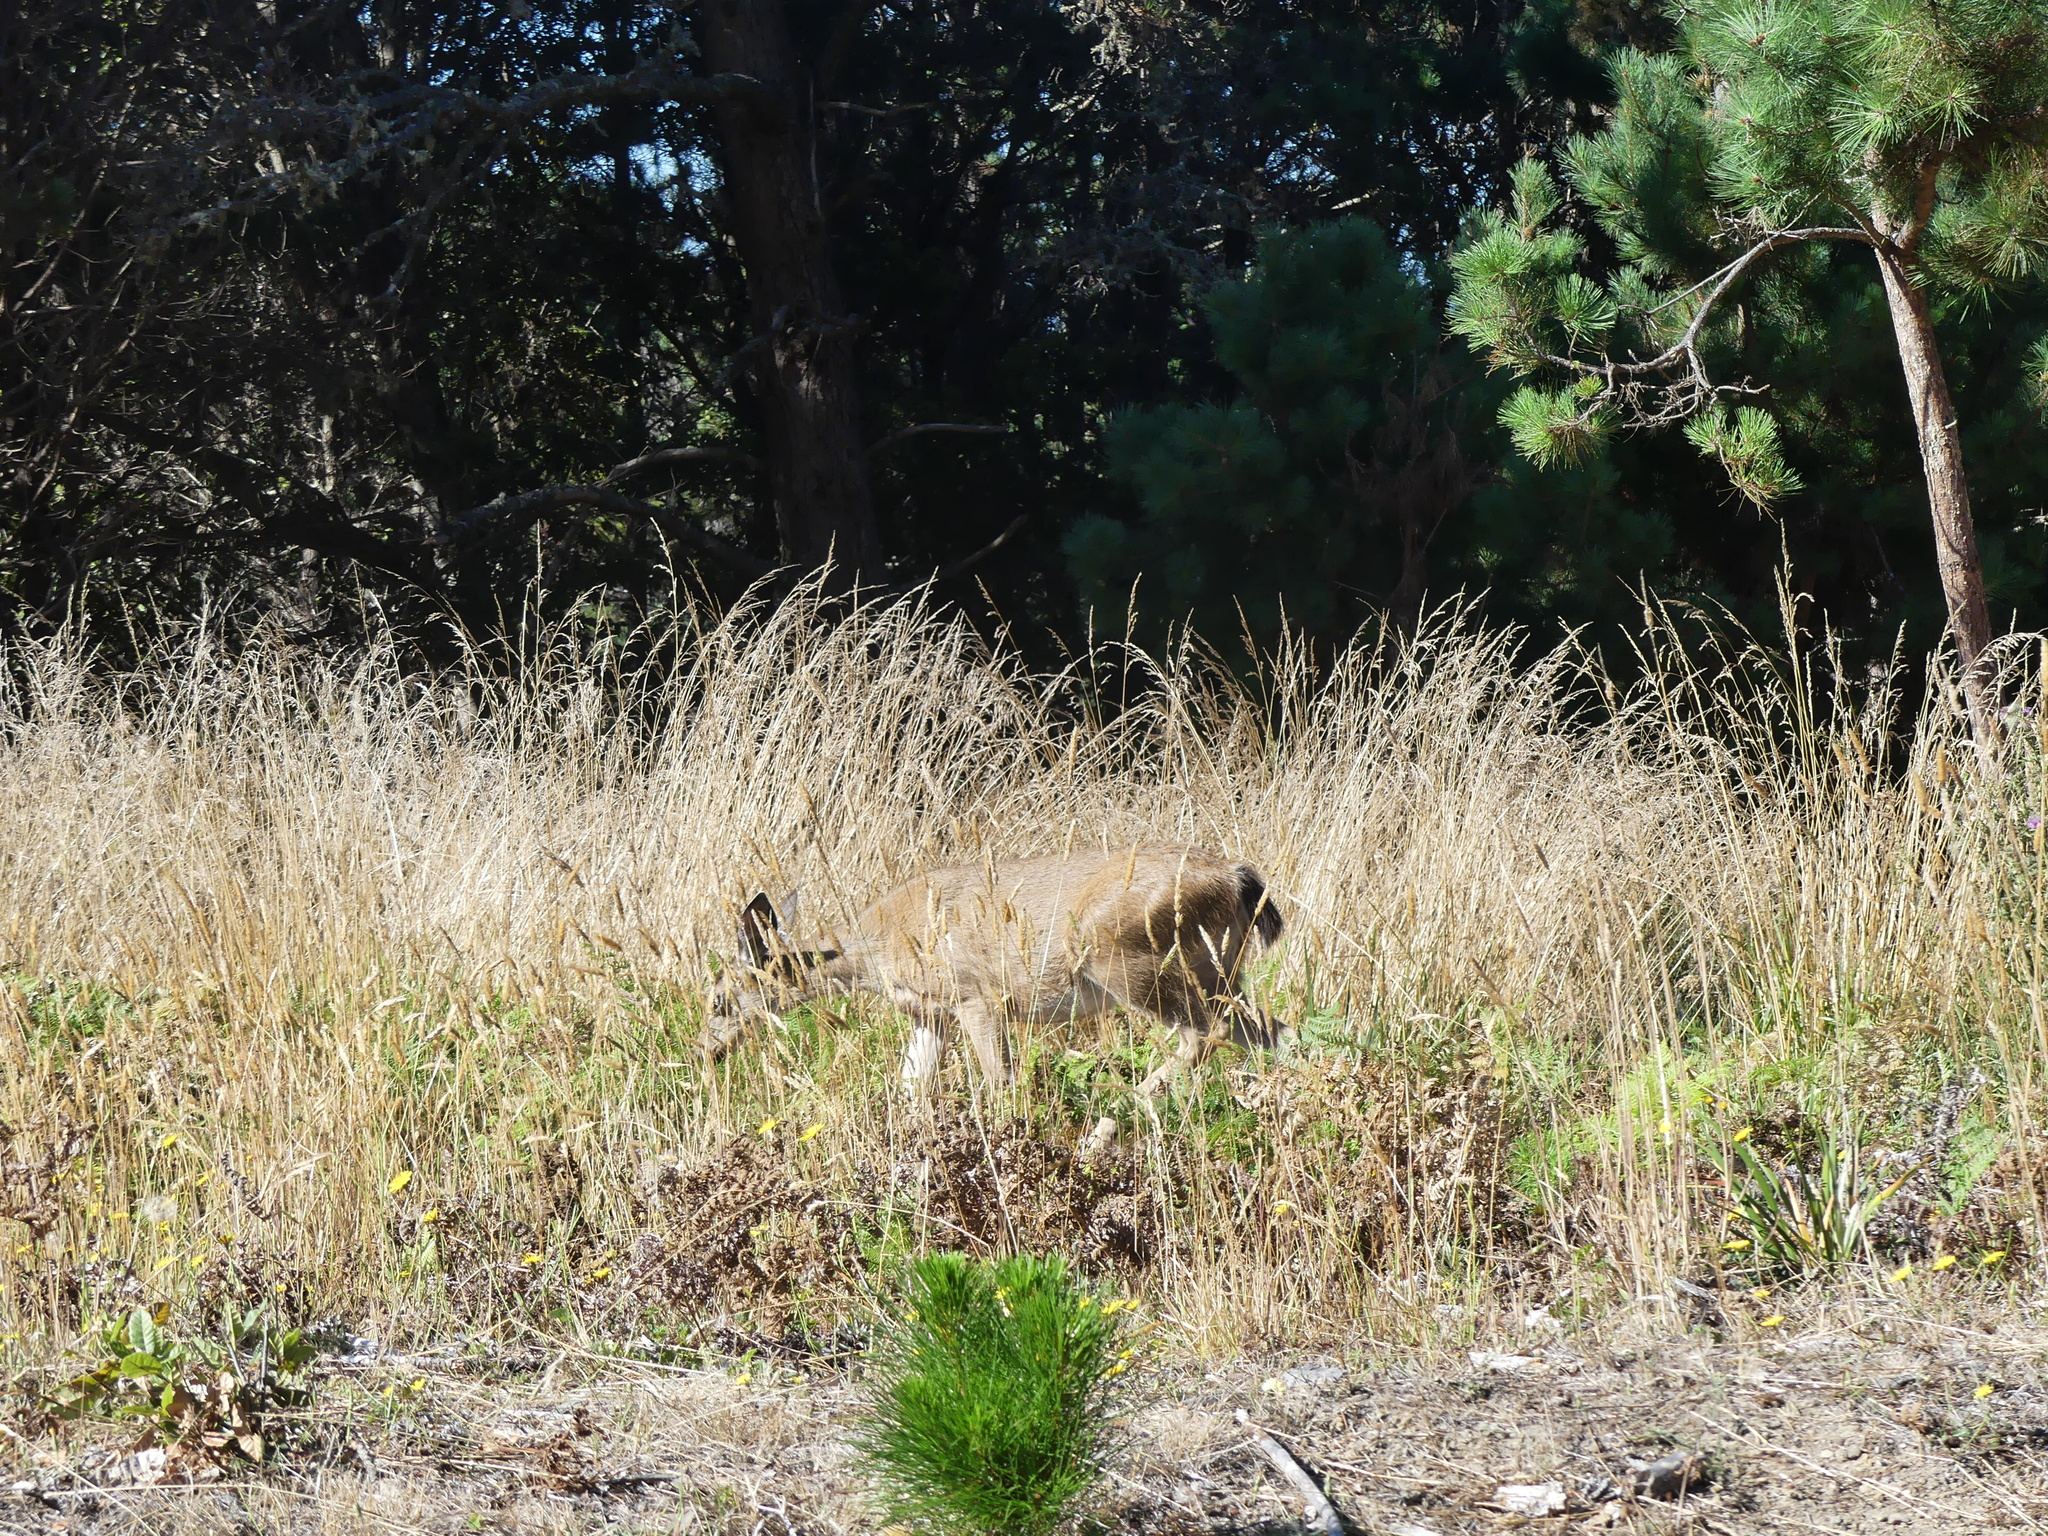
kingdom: Animalia
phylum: Chordata
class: Mammalia
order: Artiodactyla
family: Cervidae
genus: Odocoileus
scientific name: Odocoileus hemionus
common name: Mule deer
